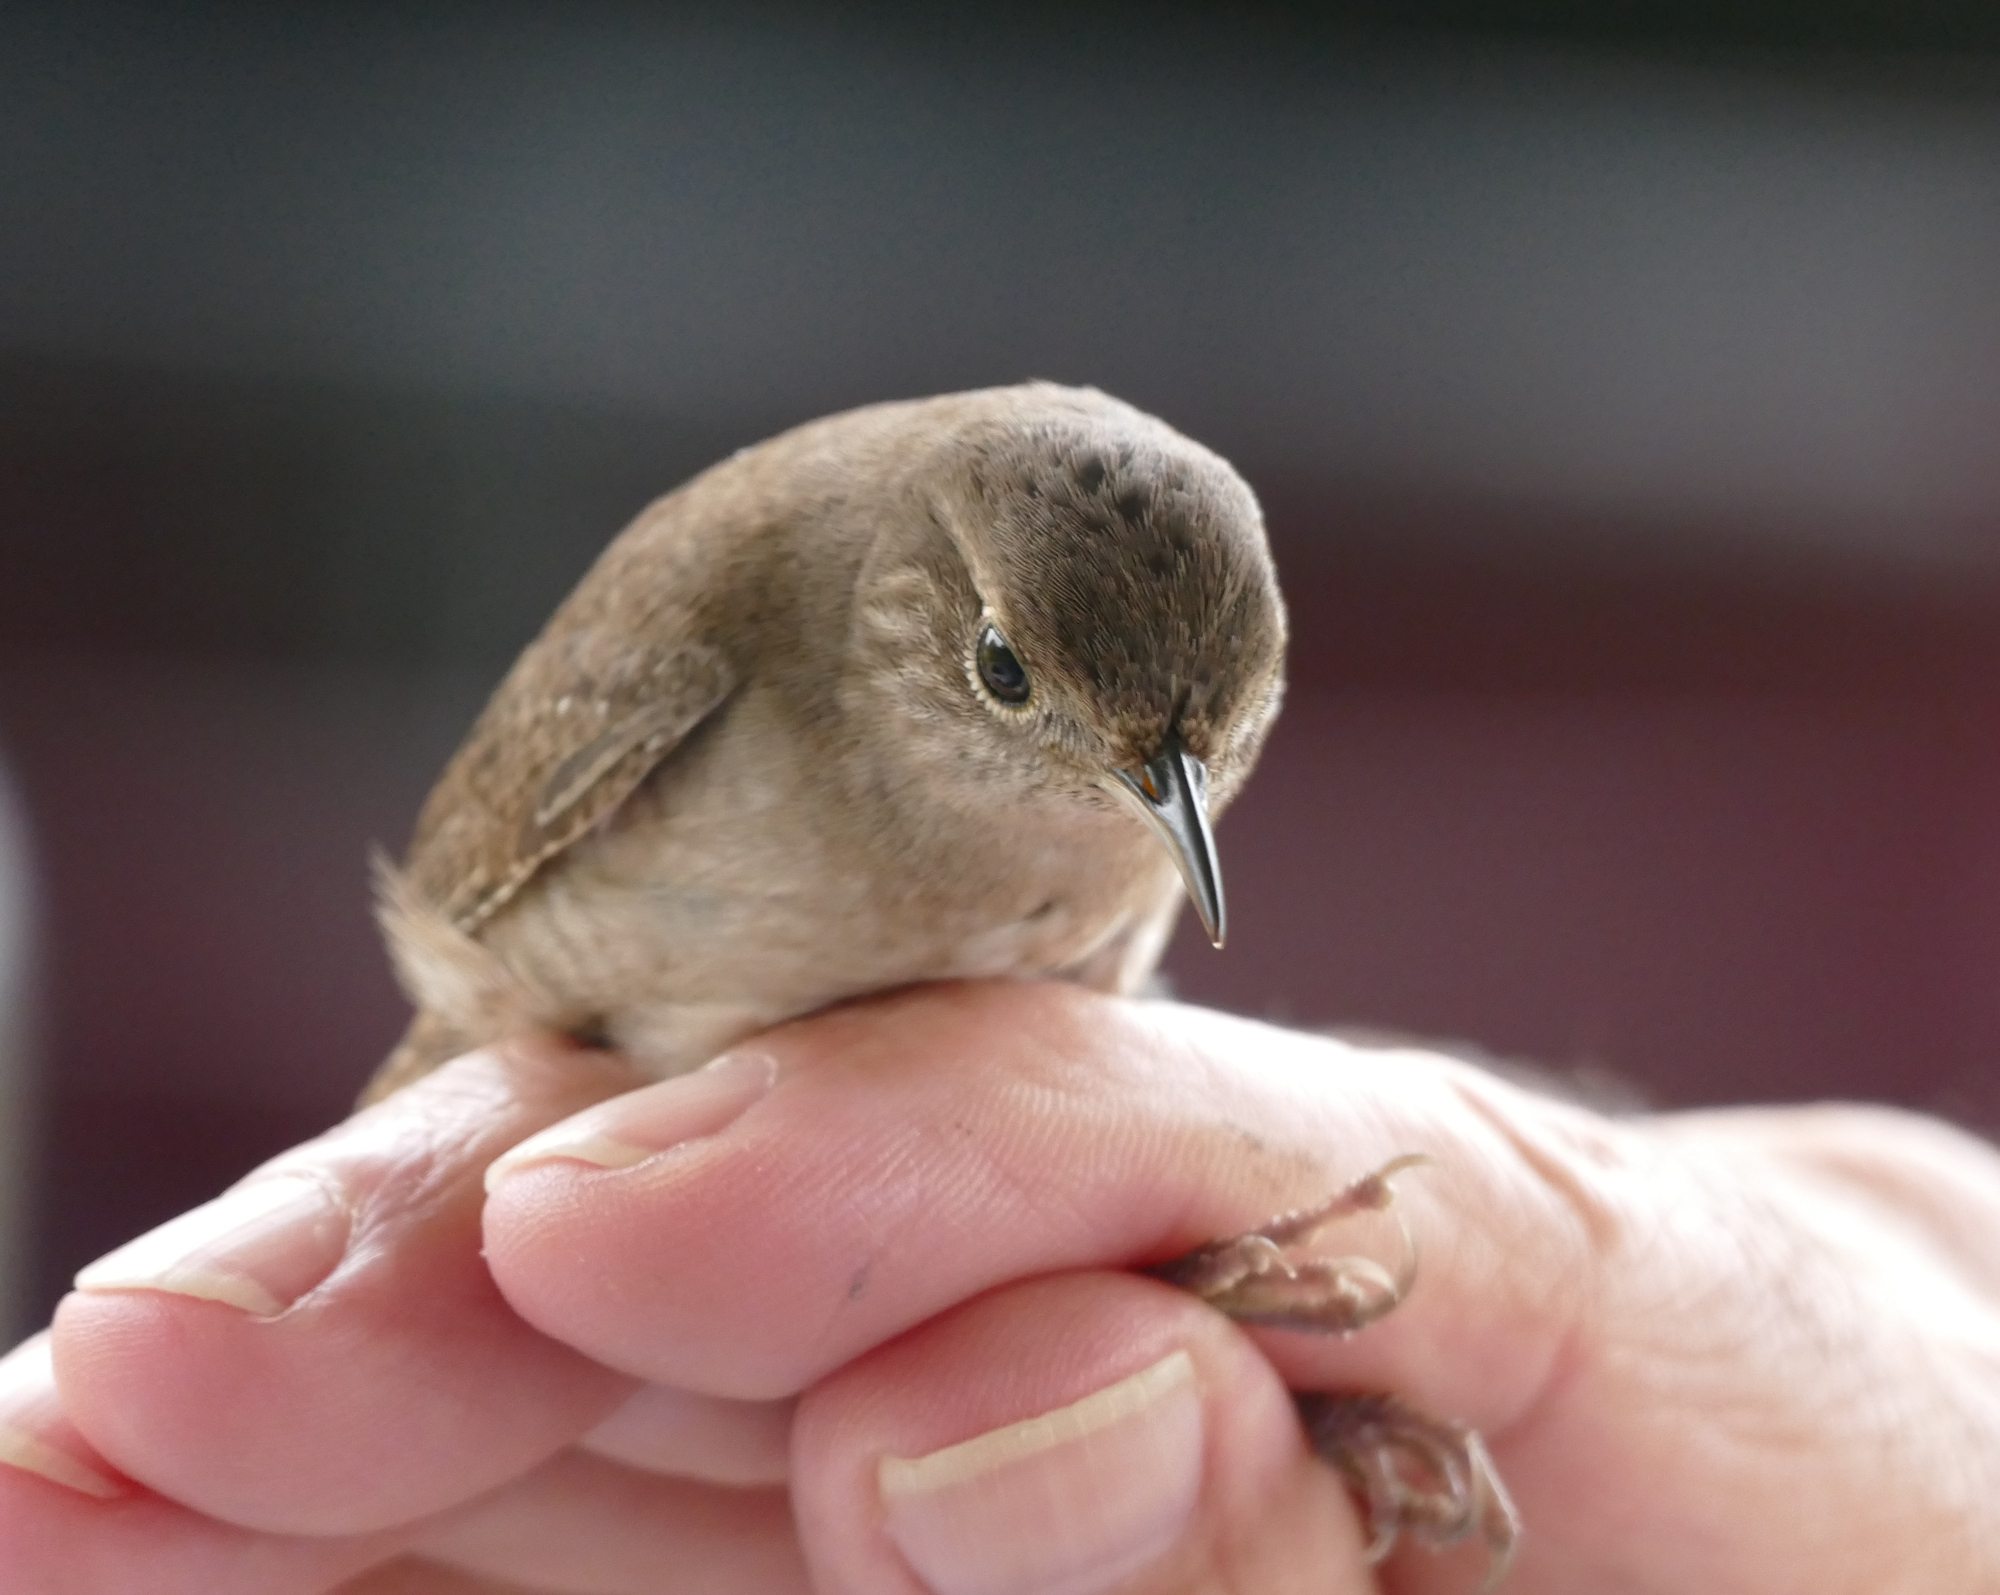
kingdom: Animalia
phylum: Chordata
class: Aves
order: Passeriformes
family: Troglodytidae
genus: Troglodytes
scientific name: Troglodytes aedon
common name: House wren
